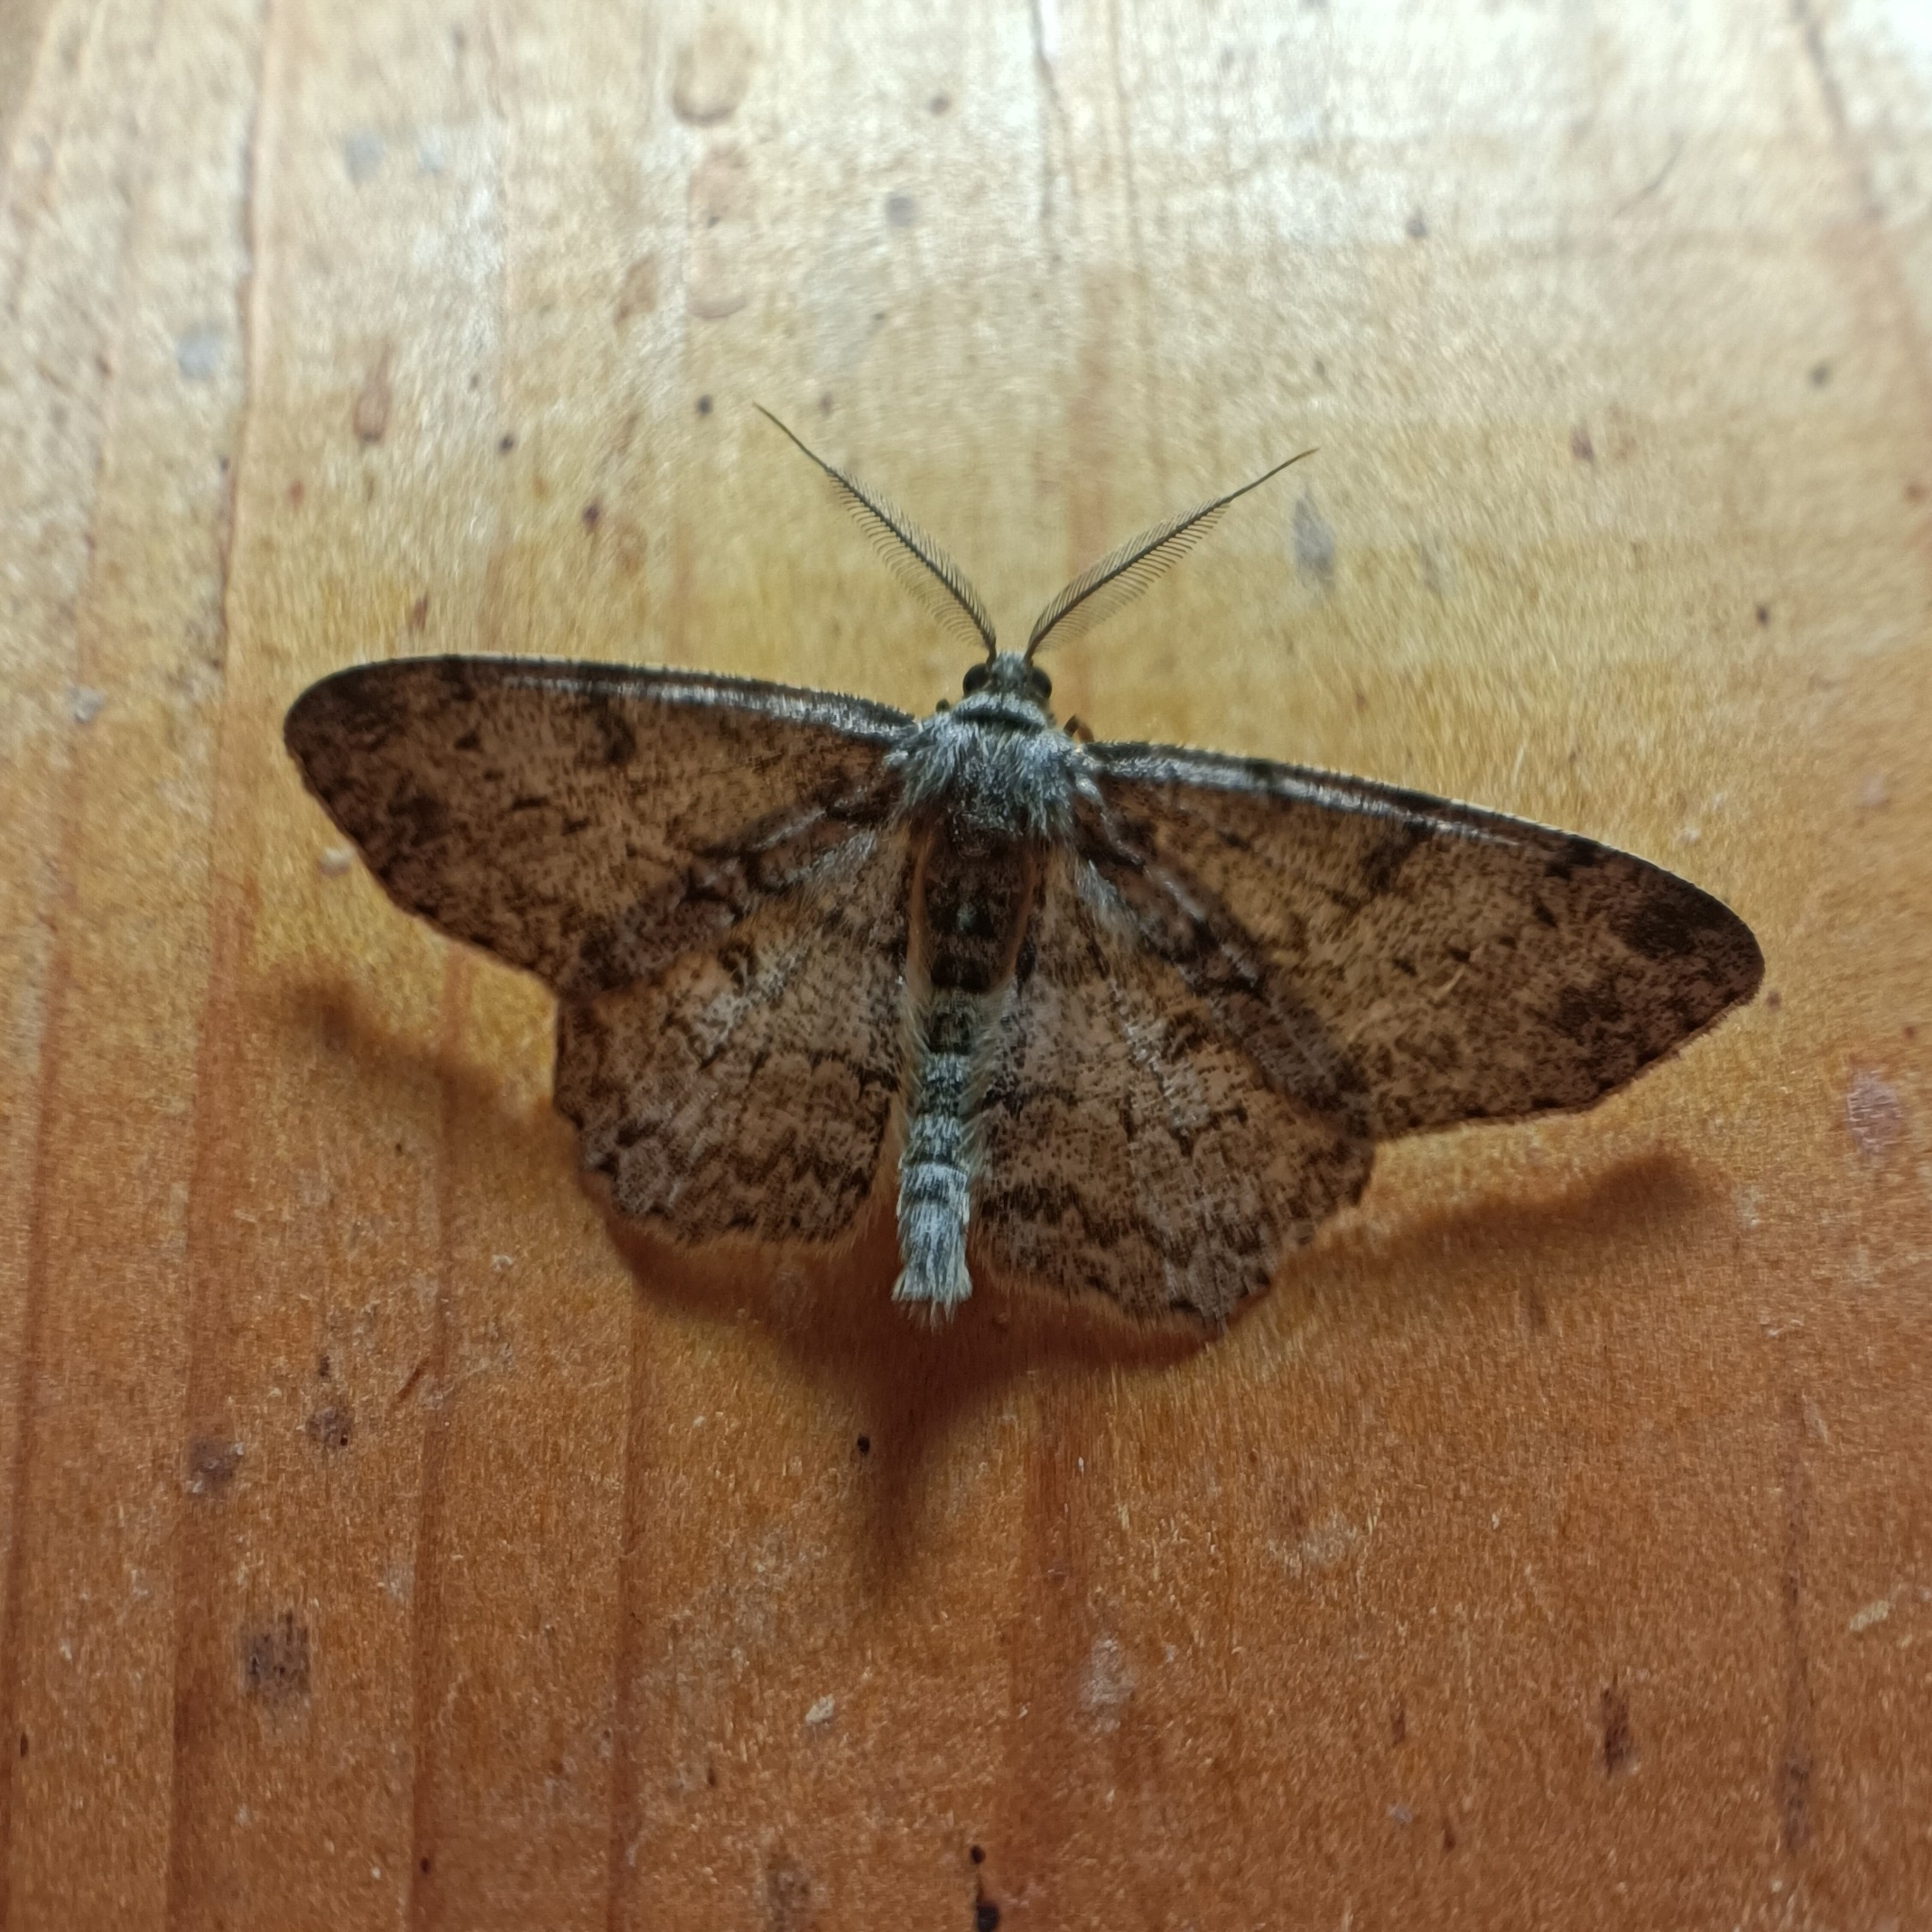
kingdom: Animalia
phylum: Arthropoda
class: Insecta
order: Lepidoptera
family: Geometridae
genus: Hypomecis
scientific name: Hypomecis punctinalis
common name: Pale oak beauty
